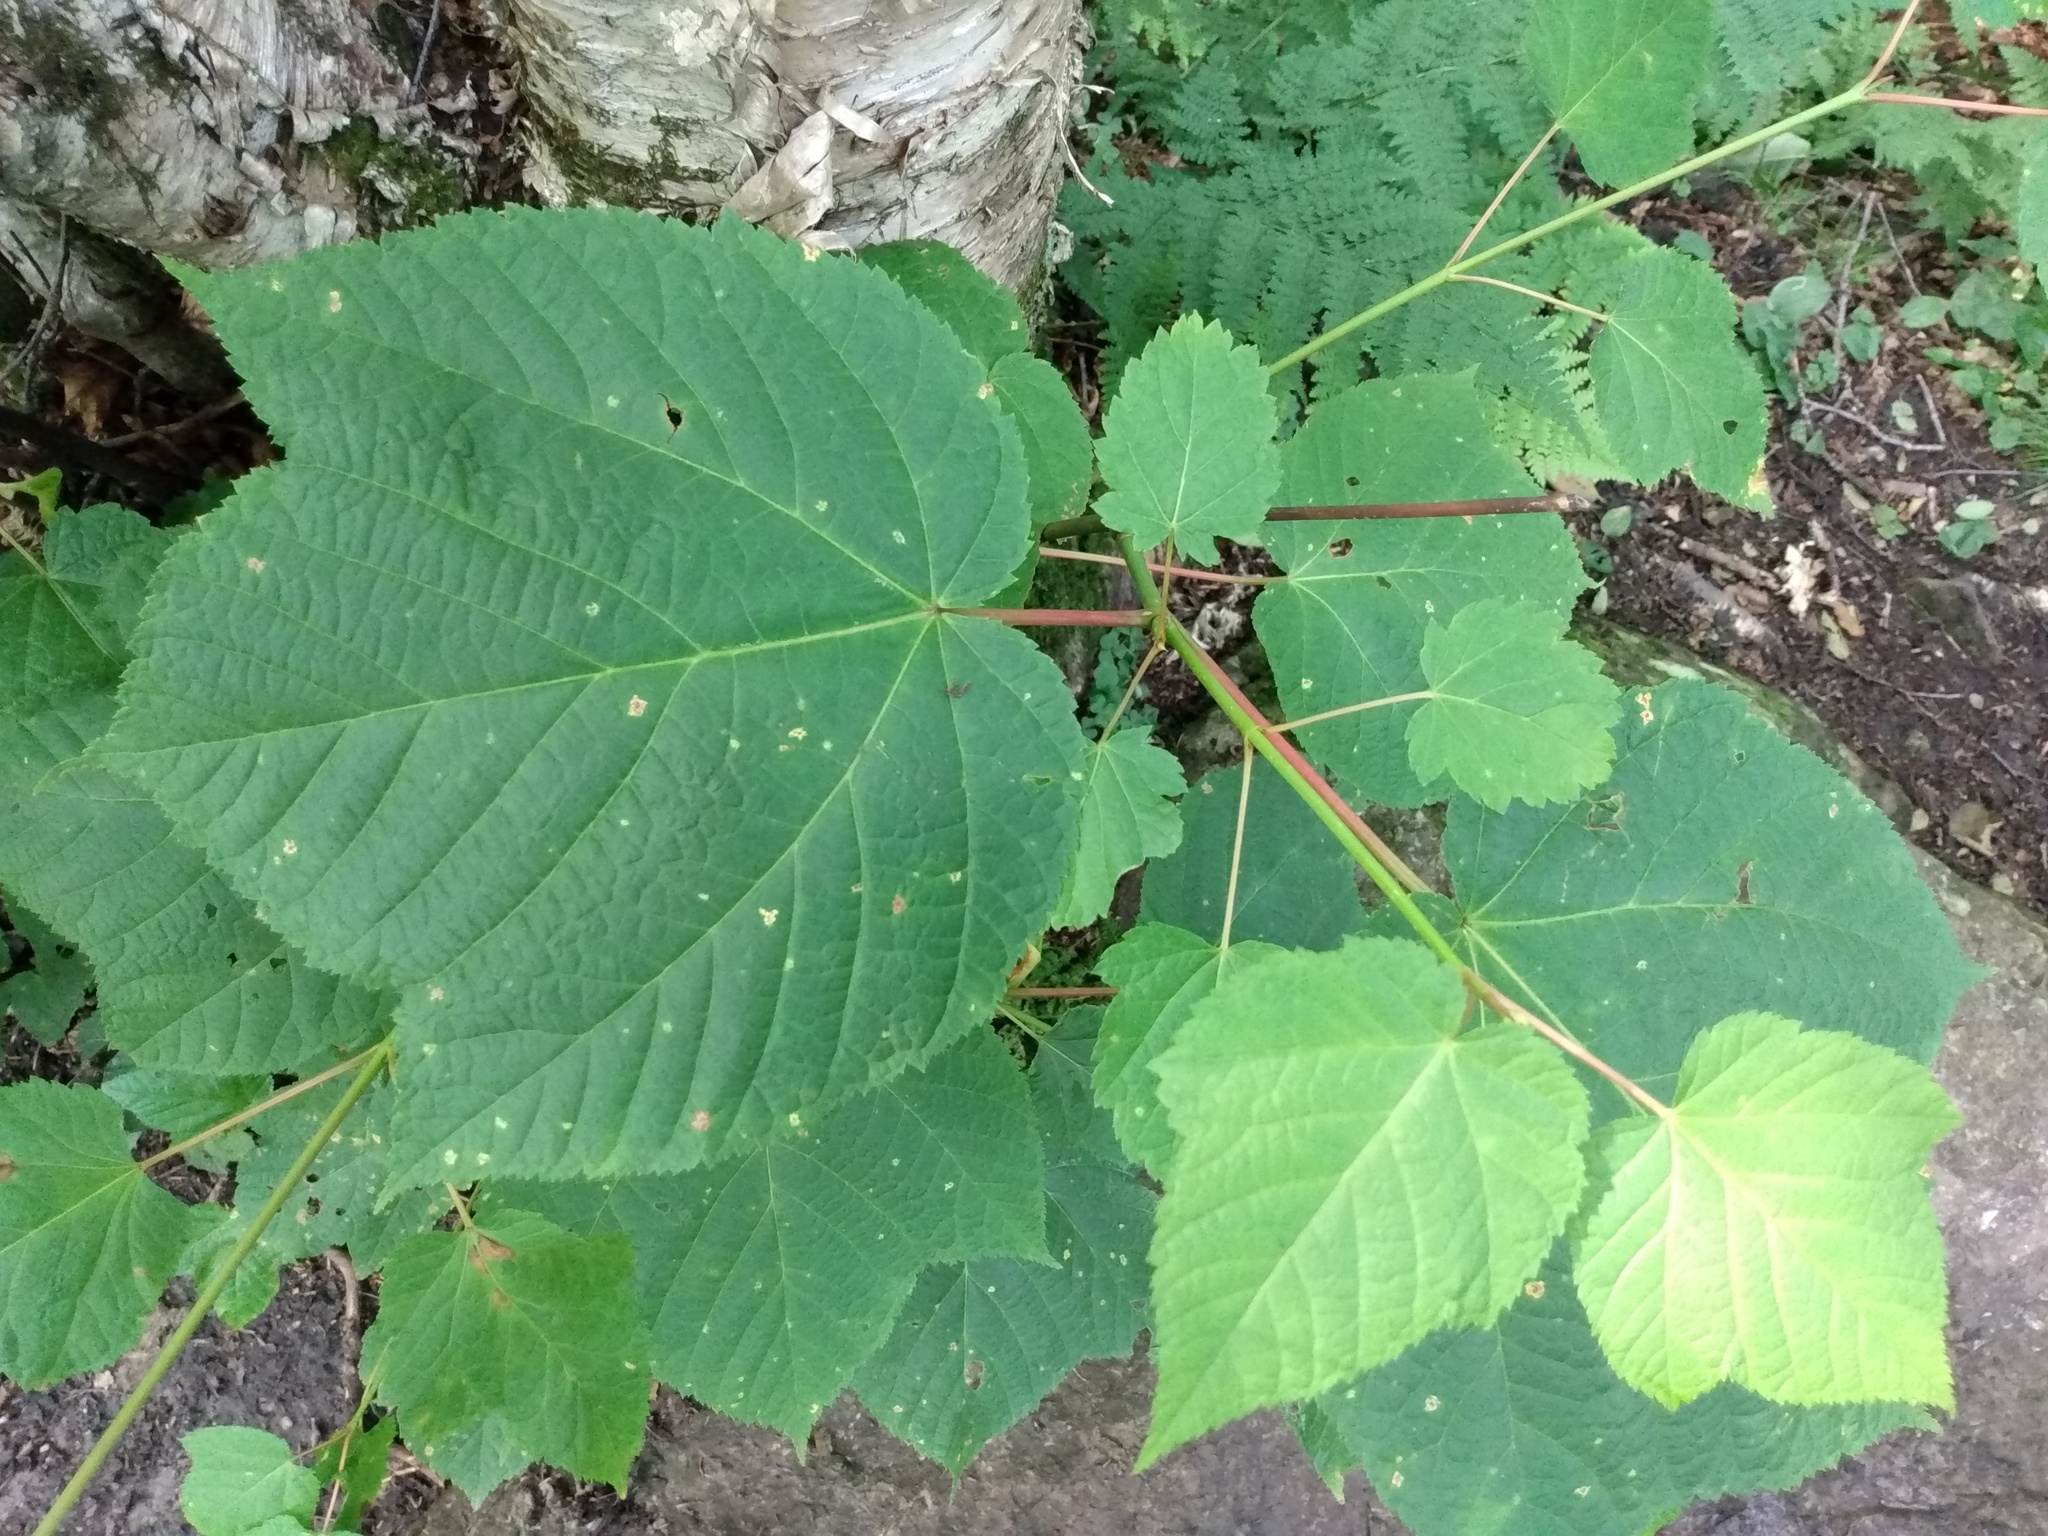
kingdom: Plantae
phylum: Tracheophyta
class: Magnoliopsida
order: Sapindales
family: Sapindaceae
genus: Acer
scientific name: Acer pensylvanicum
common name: Moosewood
